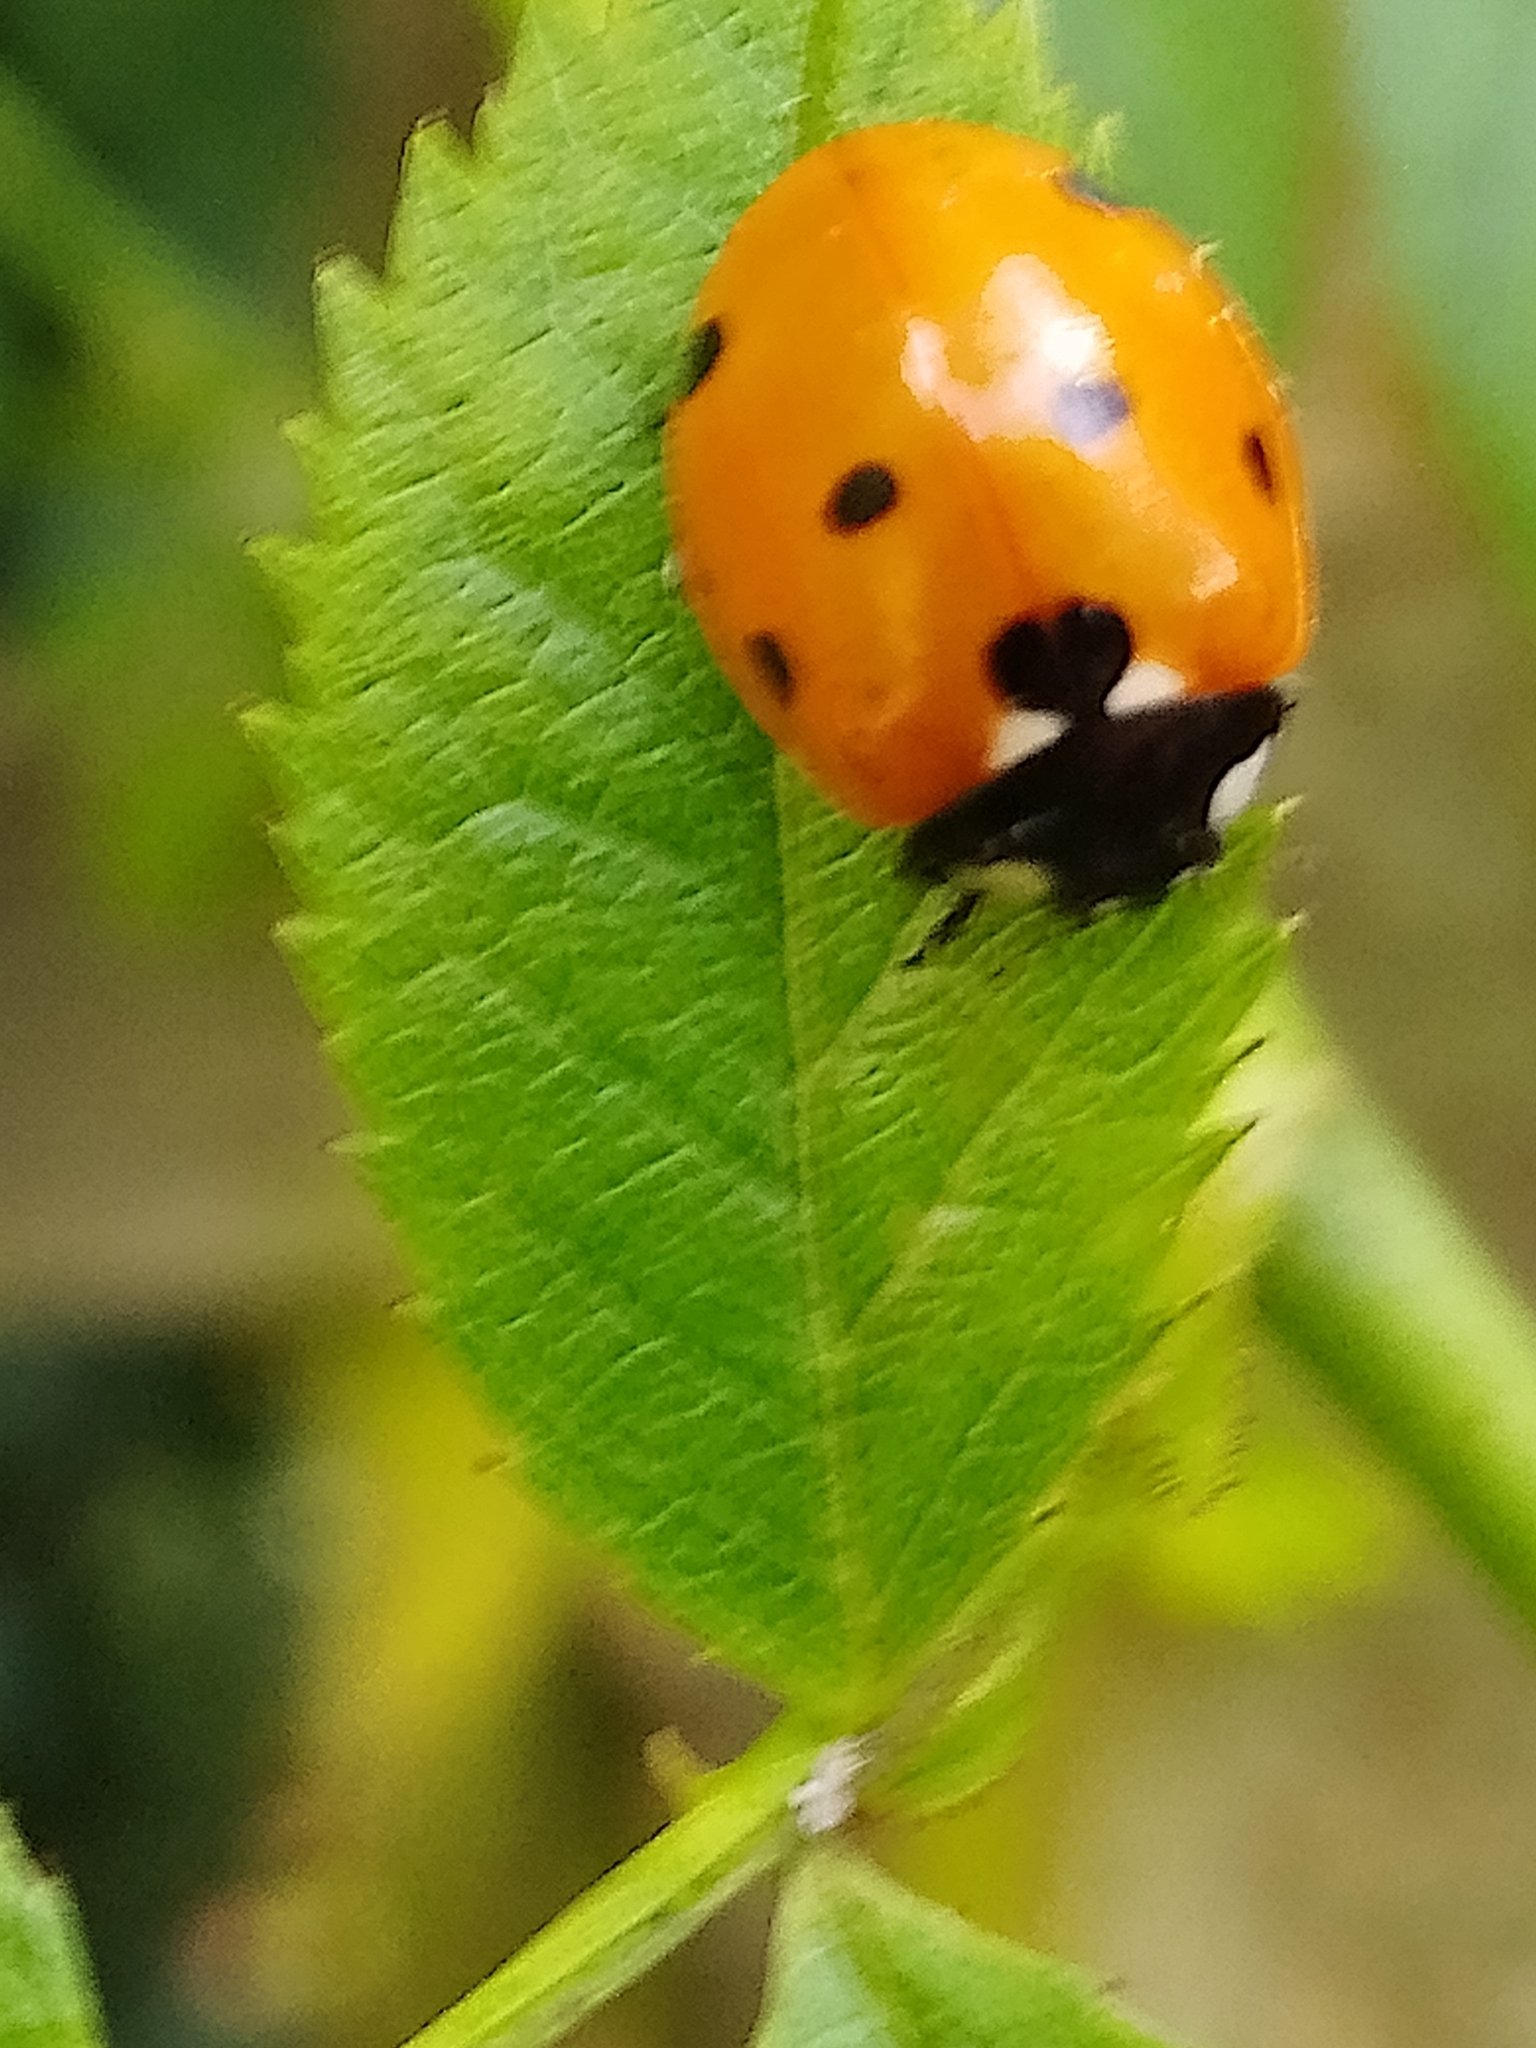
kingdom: Animalia
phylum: Arthropoda
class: Insecta
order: Coleoptera
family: Coccinellidae
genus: Coccinella
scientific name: Coccinella septempunctata
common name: Sevenspotted lady beetle
